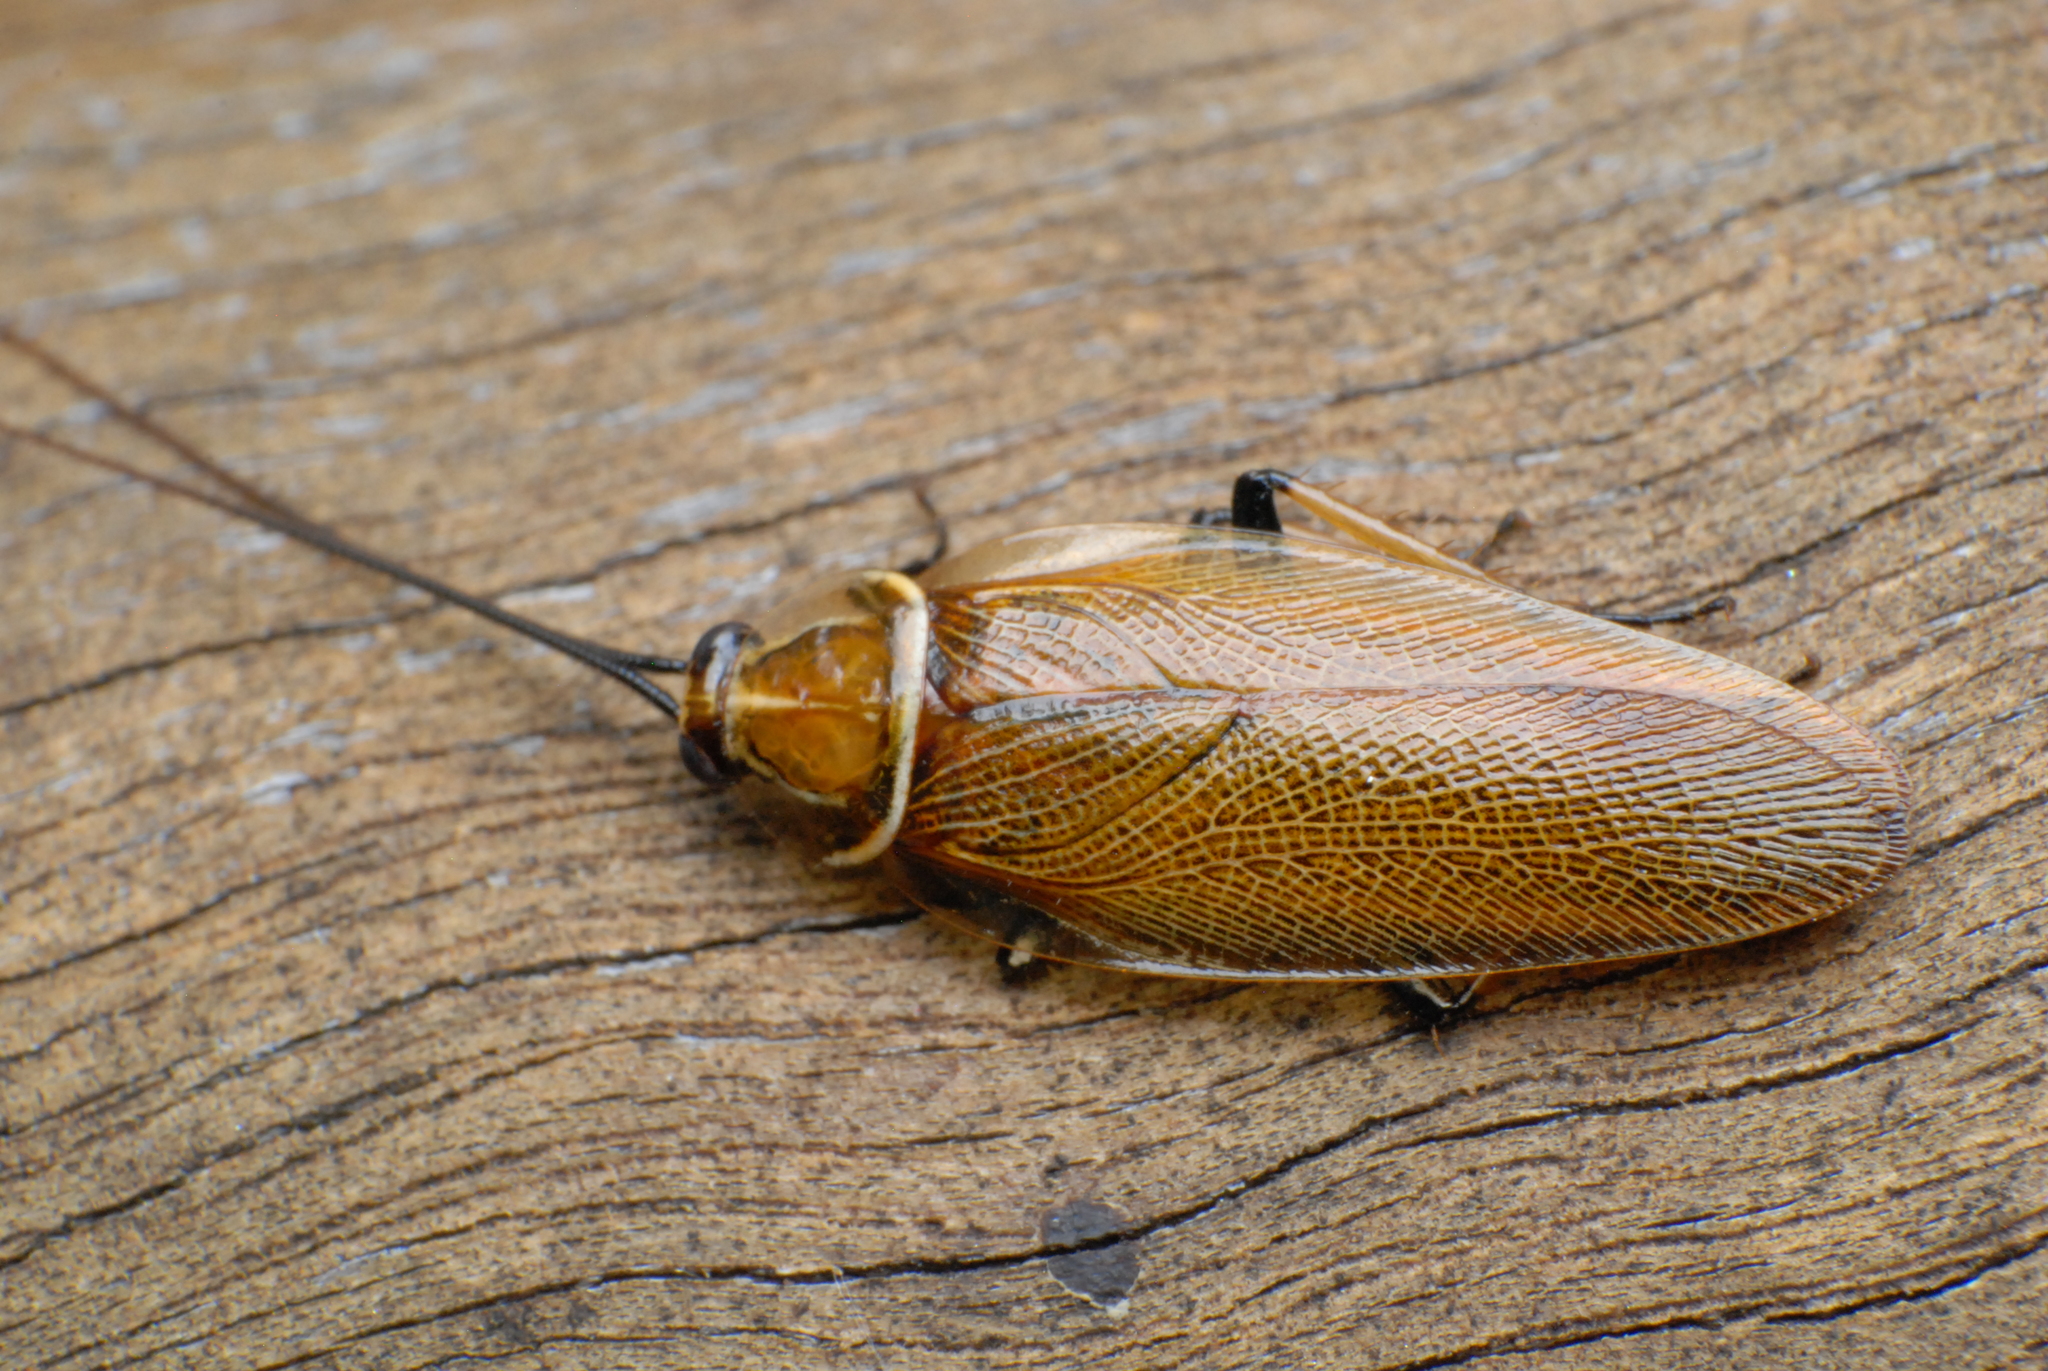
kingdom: Animalia
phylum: Arthropoda
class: Insecta
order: Blattodea
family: Ectobiidae
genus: Balta
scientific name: Balta bicolor
